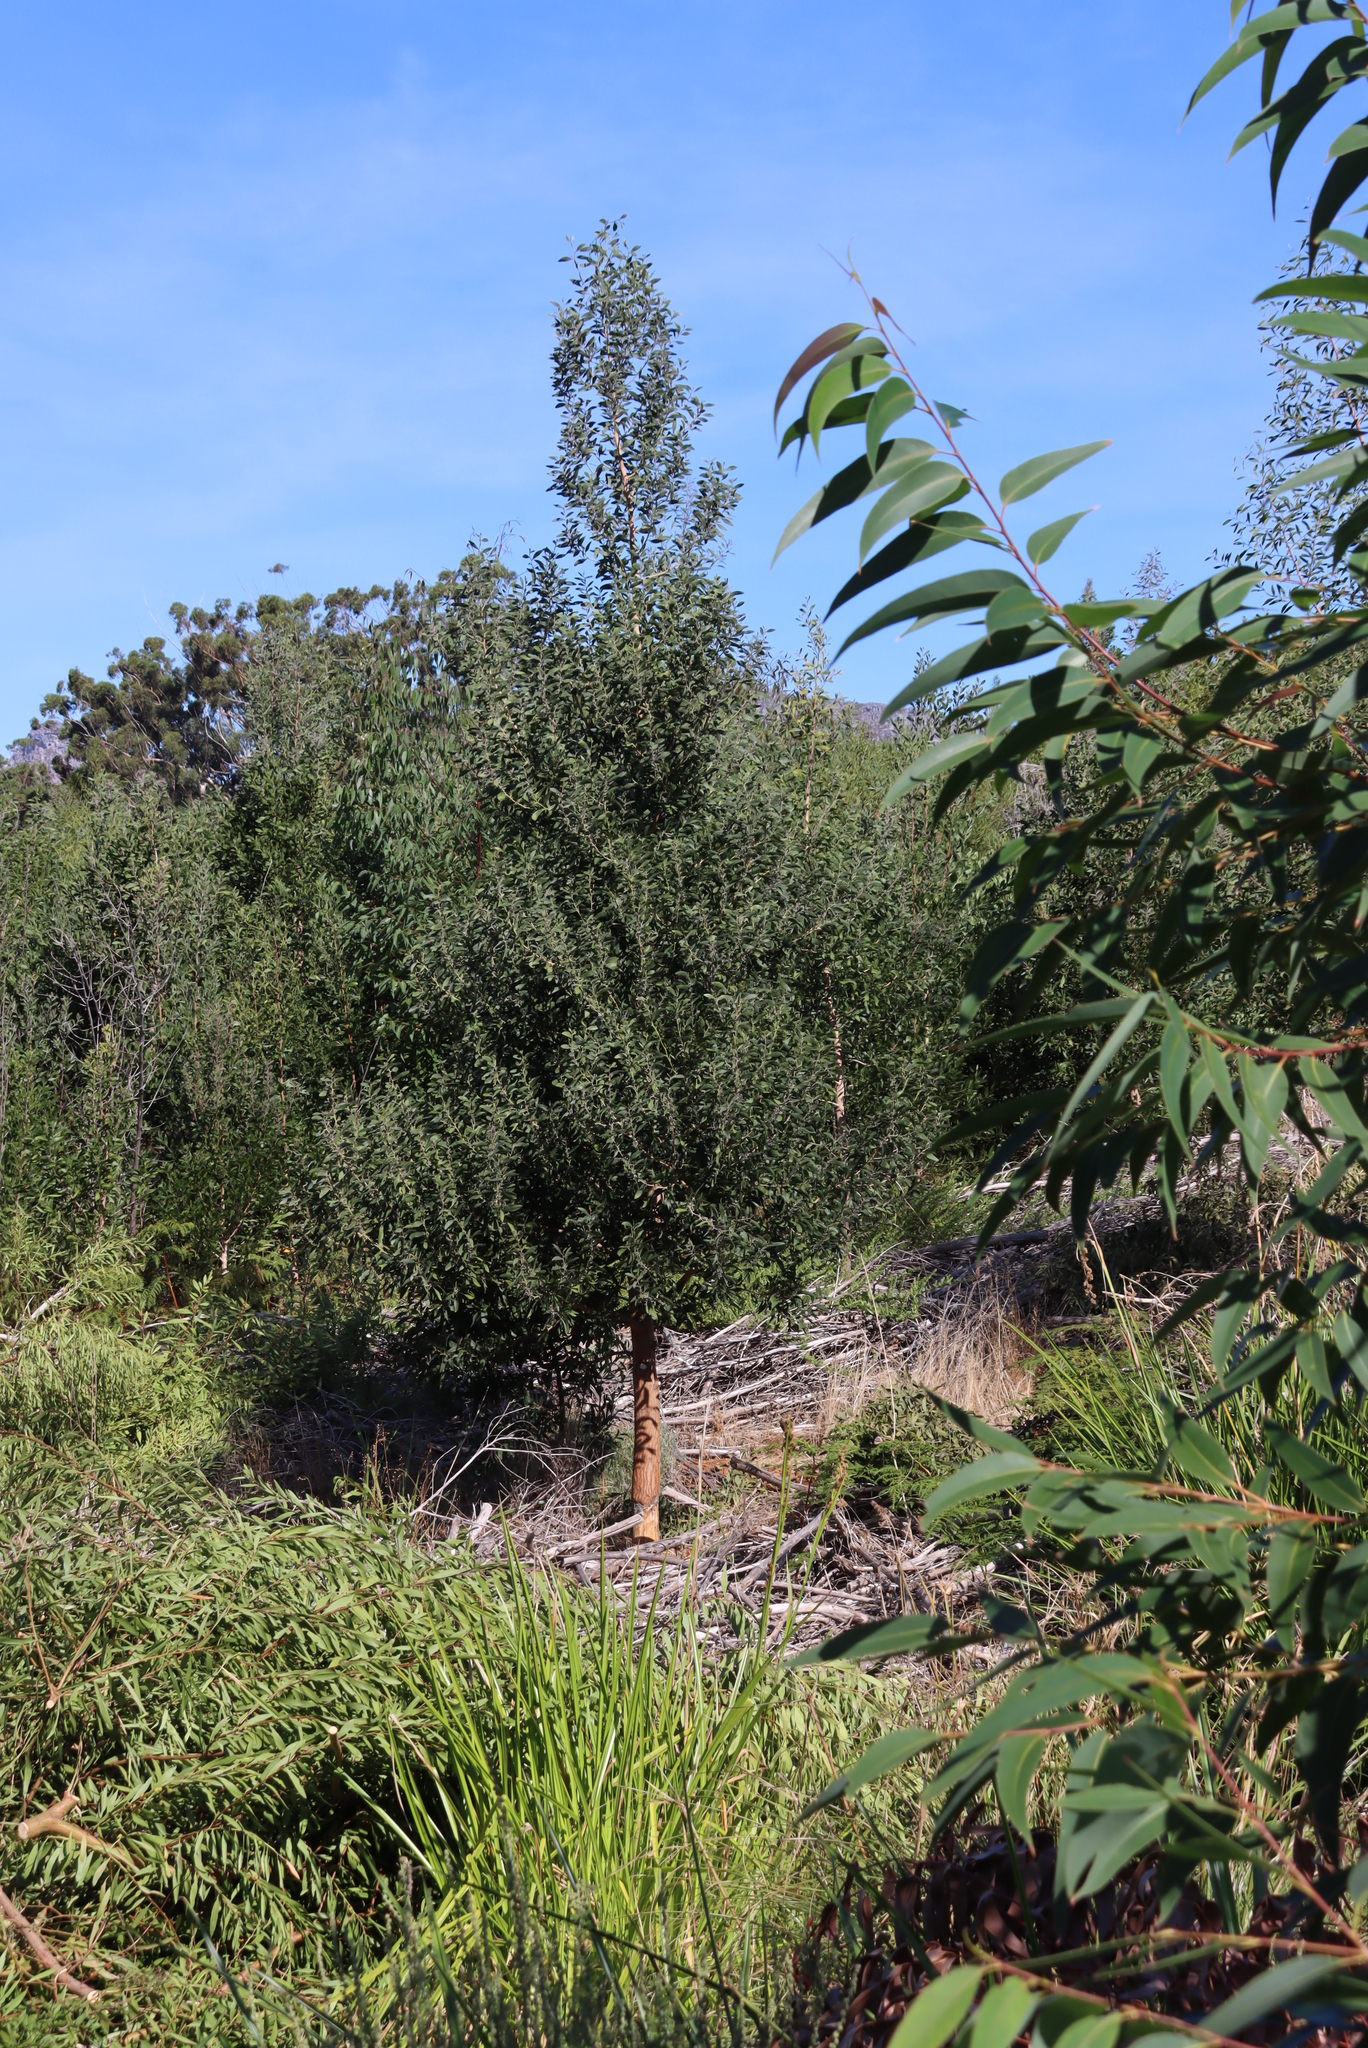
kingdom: Plantae
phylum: Tracheophyta
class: Magnoliopsida
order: Fabales
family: Fabaceae
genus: Acacia
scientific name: Acacia melanoxylon
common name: Blackwood
